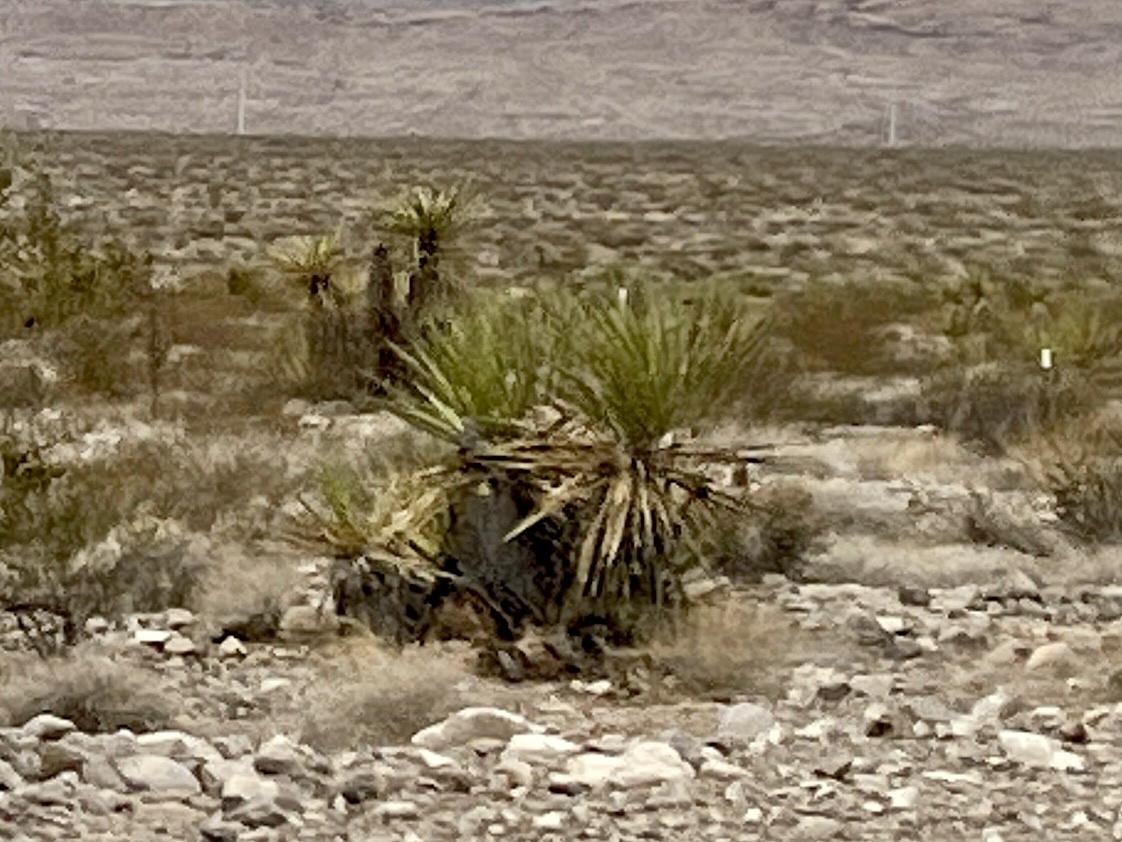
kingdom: Plantae
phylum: Tracheophyta
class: Liliopsida
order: Asparagales
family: Asparagaceae
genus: Yucca
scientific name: Yucca schidigera
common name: Mojave yucca
